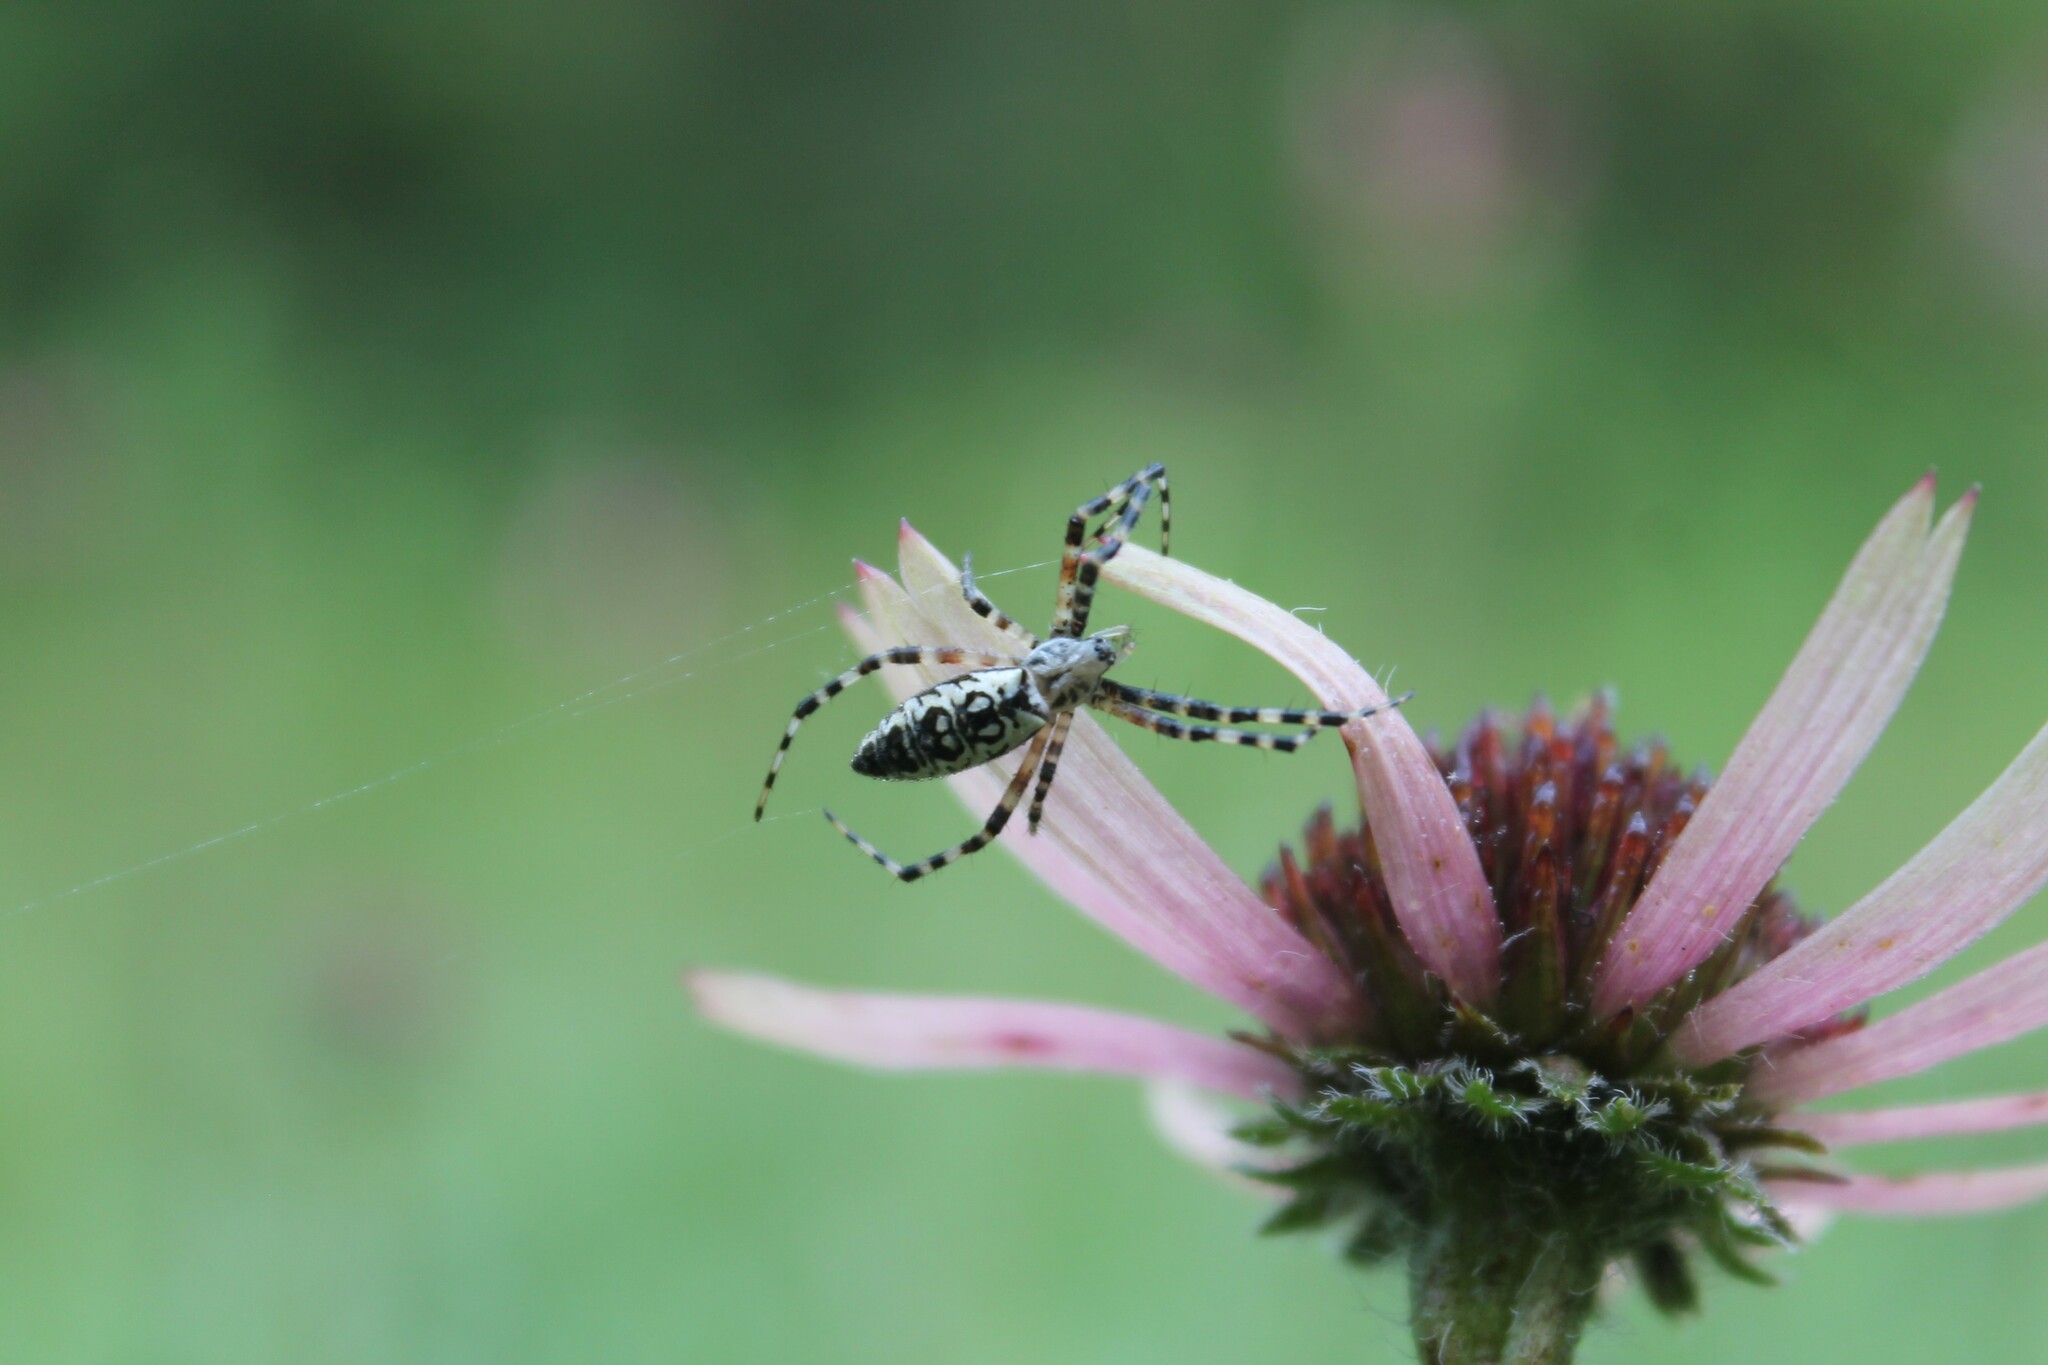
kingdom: Animalia
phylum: Arthropoda
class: Arachnida
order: Araneae
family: Araneidae
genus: Argiope
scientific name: Argiope aurantia
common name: Orb weavers
